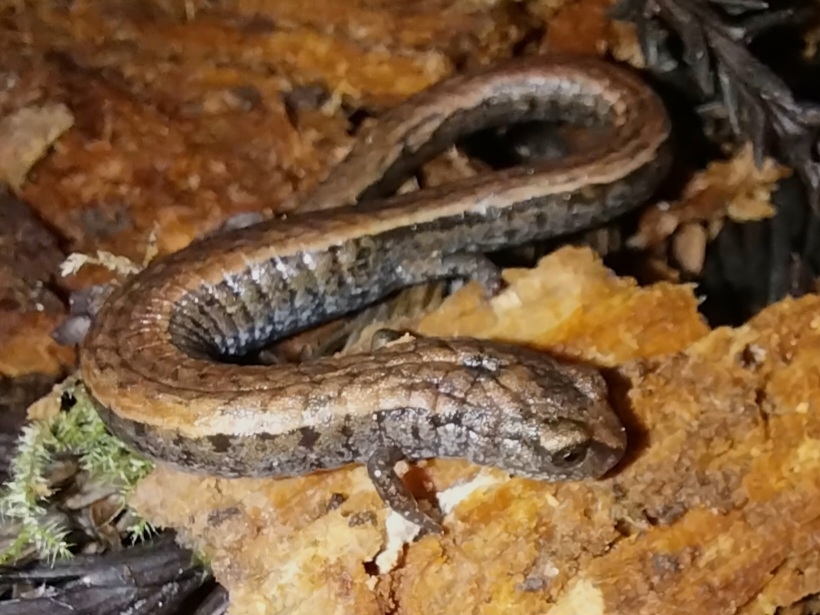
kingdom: Animalia
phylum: Chordata
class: Amphibia
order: Caudata
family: Plethodontidae
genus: Batrachoseps
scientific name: Batrachoseps attenuatus
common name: California slender salamander
